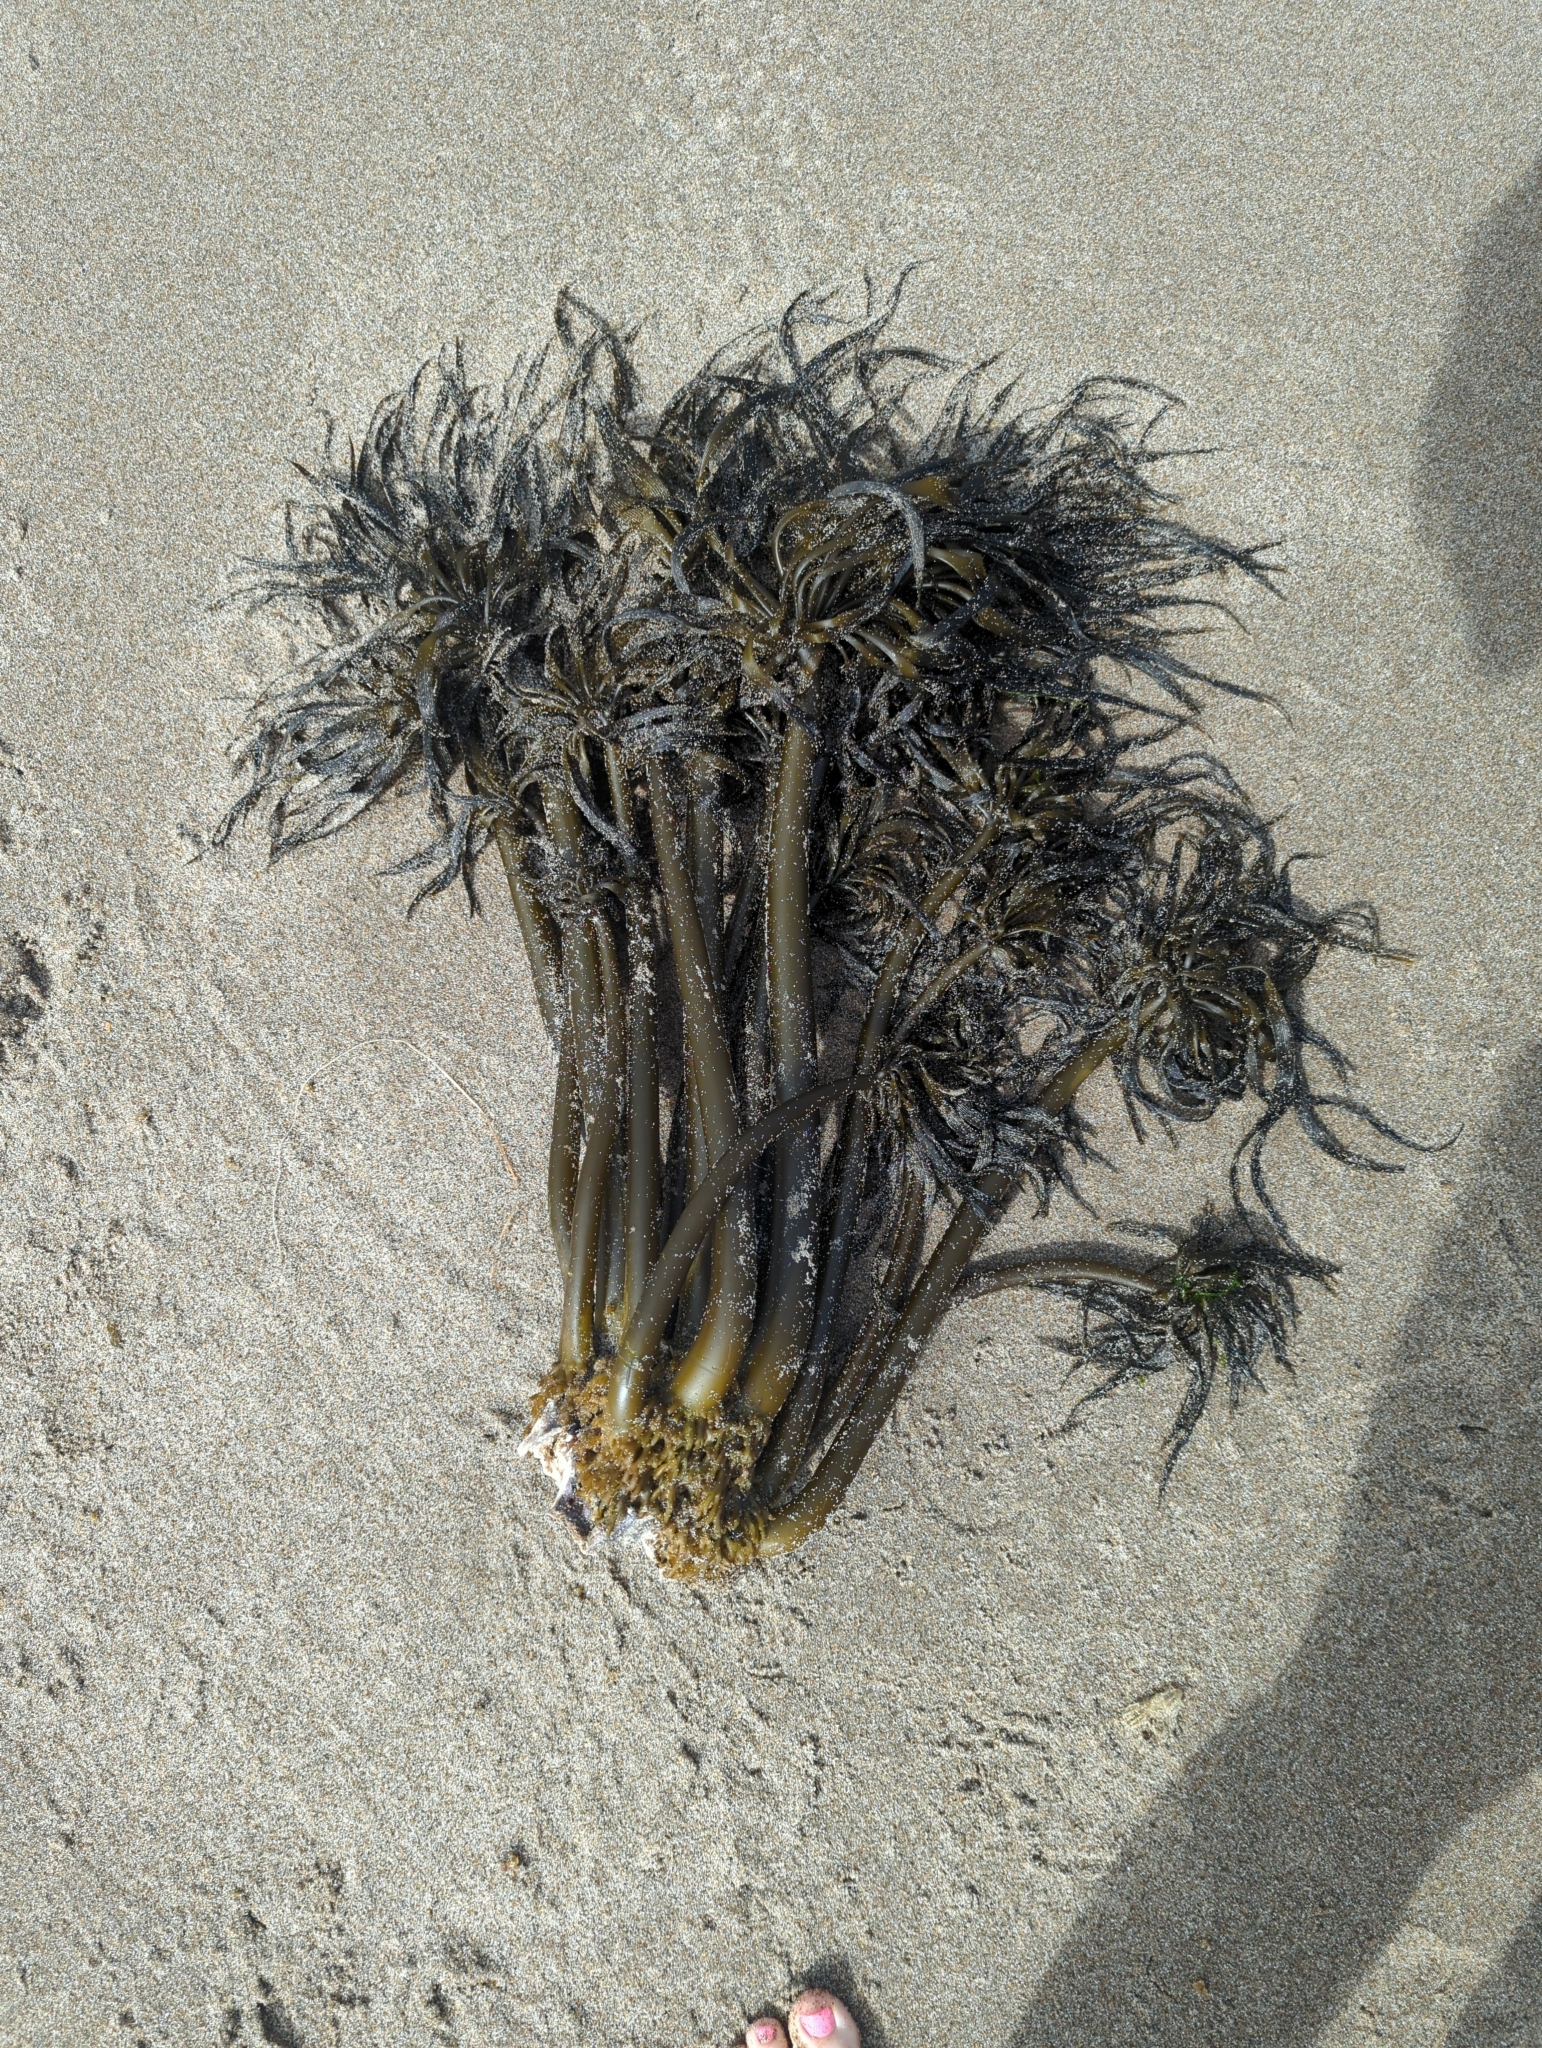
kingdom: Chromista
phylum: Ochrophyta
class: Phaeophyceae
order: Laminariales
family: Laminariaceae
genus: Postelsia
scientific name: Postelsia palmiformis
